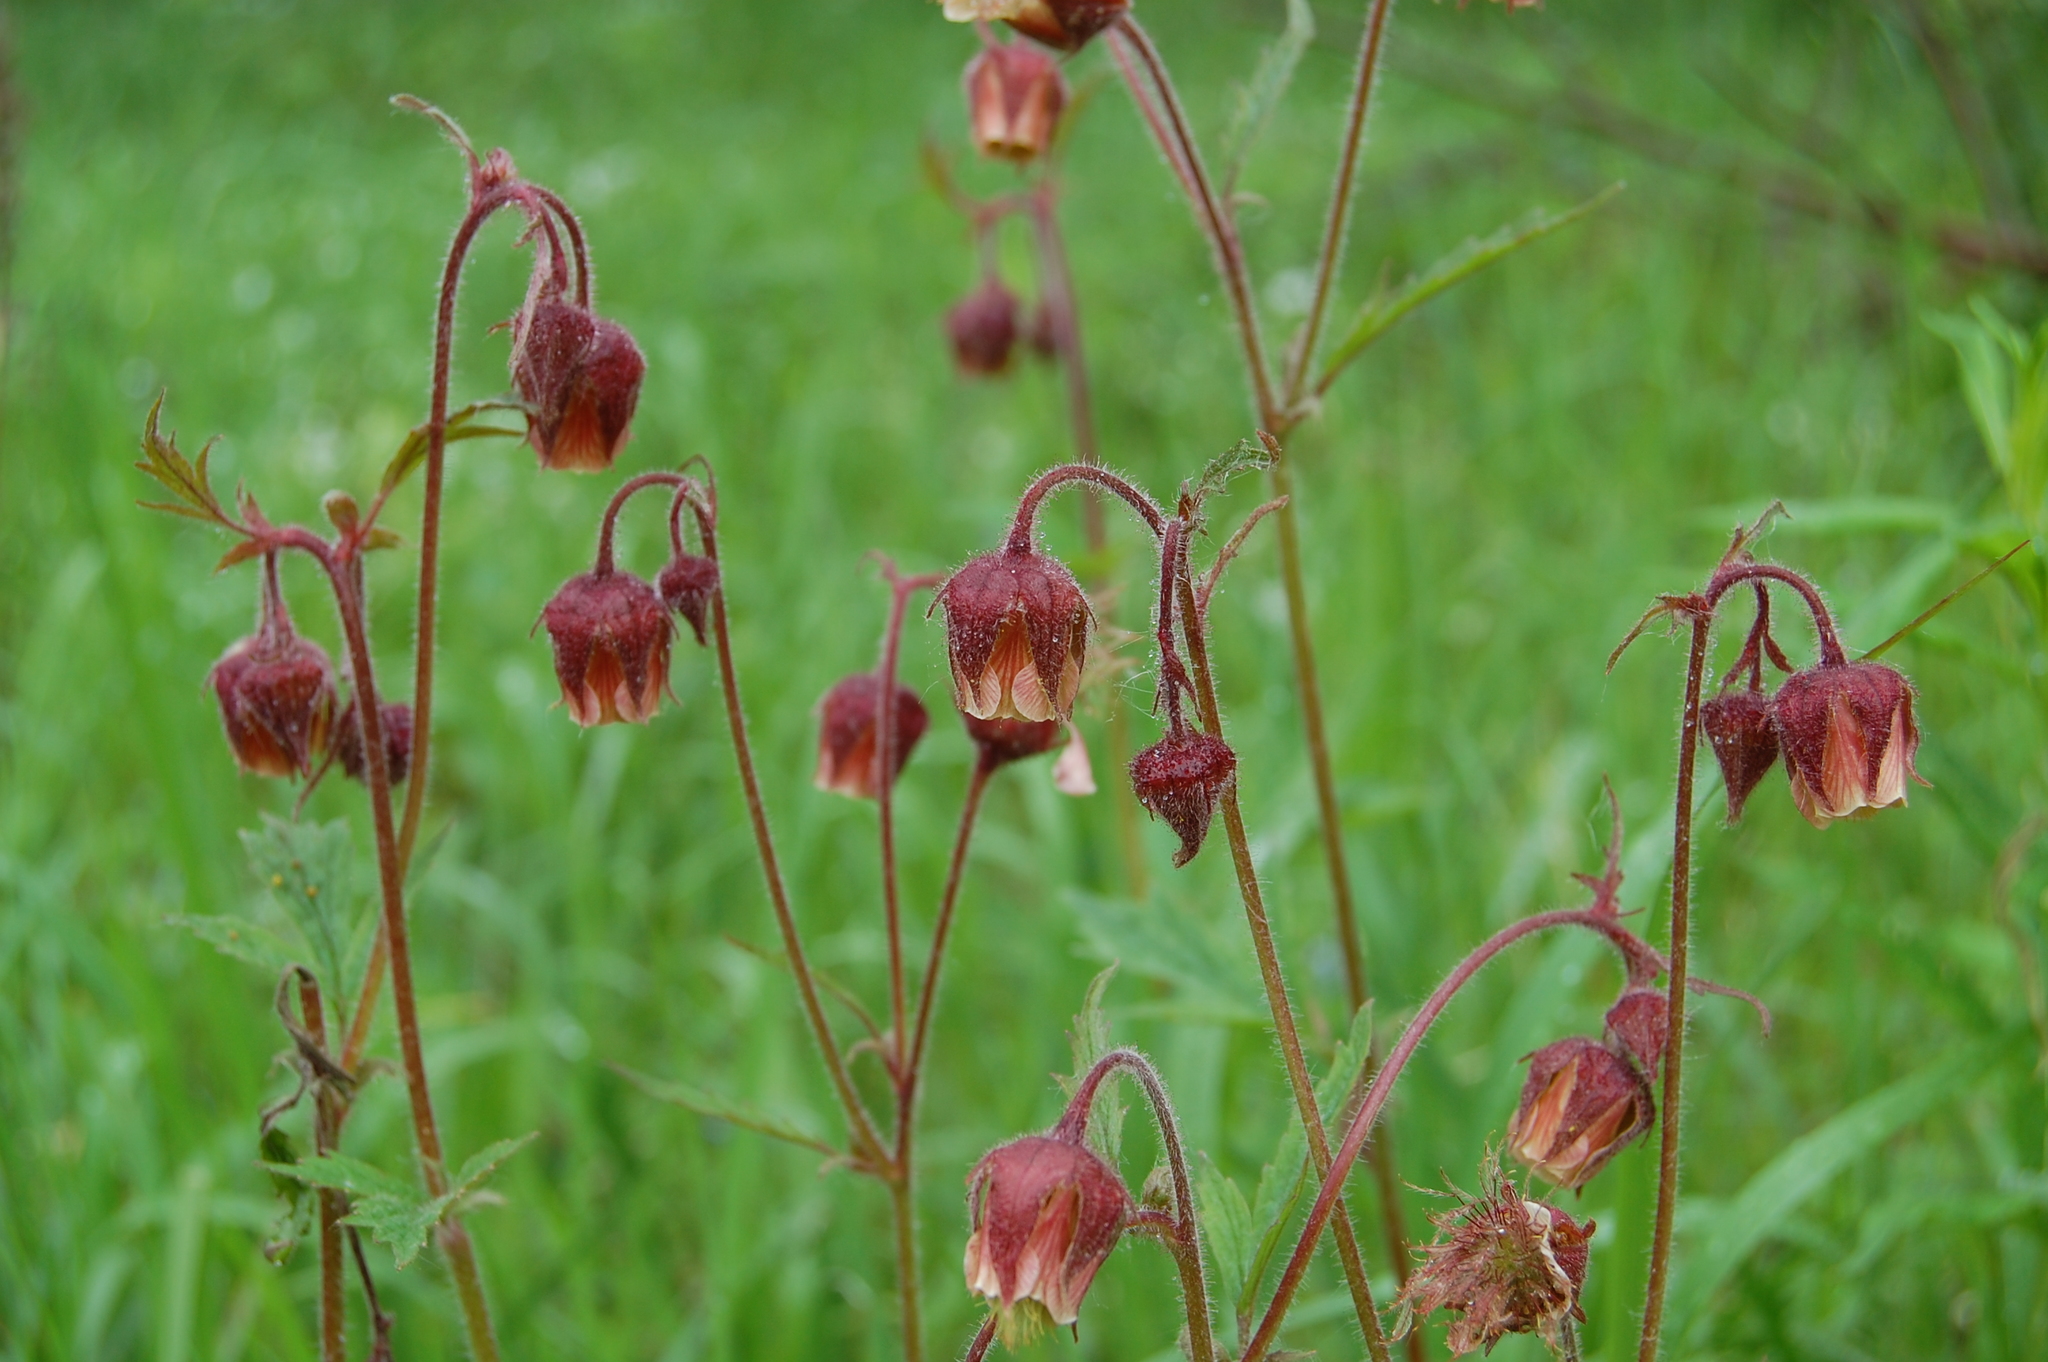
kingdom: Plantae
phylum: Tracheophyta
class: Magnoliopsida
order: Rosales
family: Rosaceae
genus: Geum
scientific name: Geum rivale
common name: Water avens
